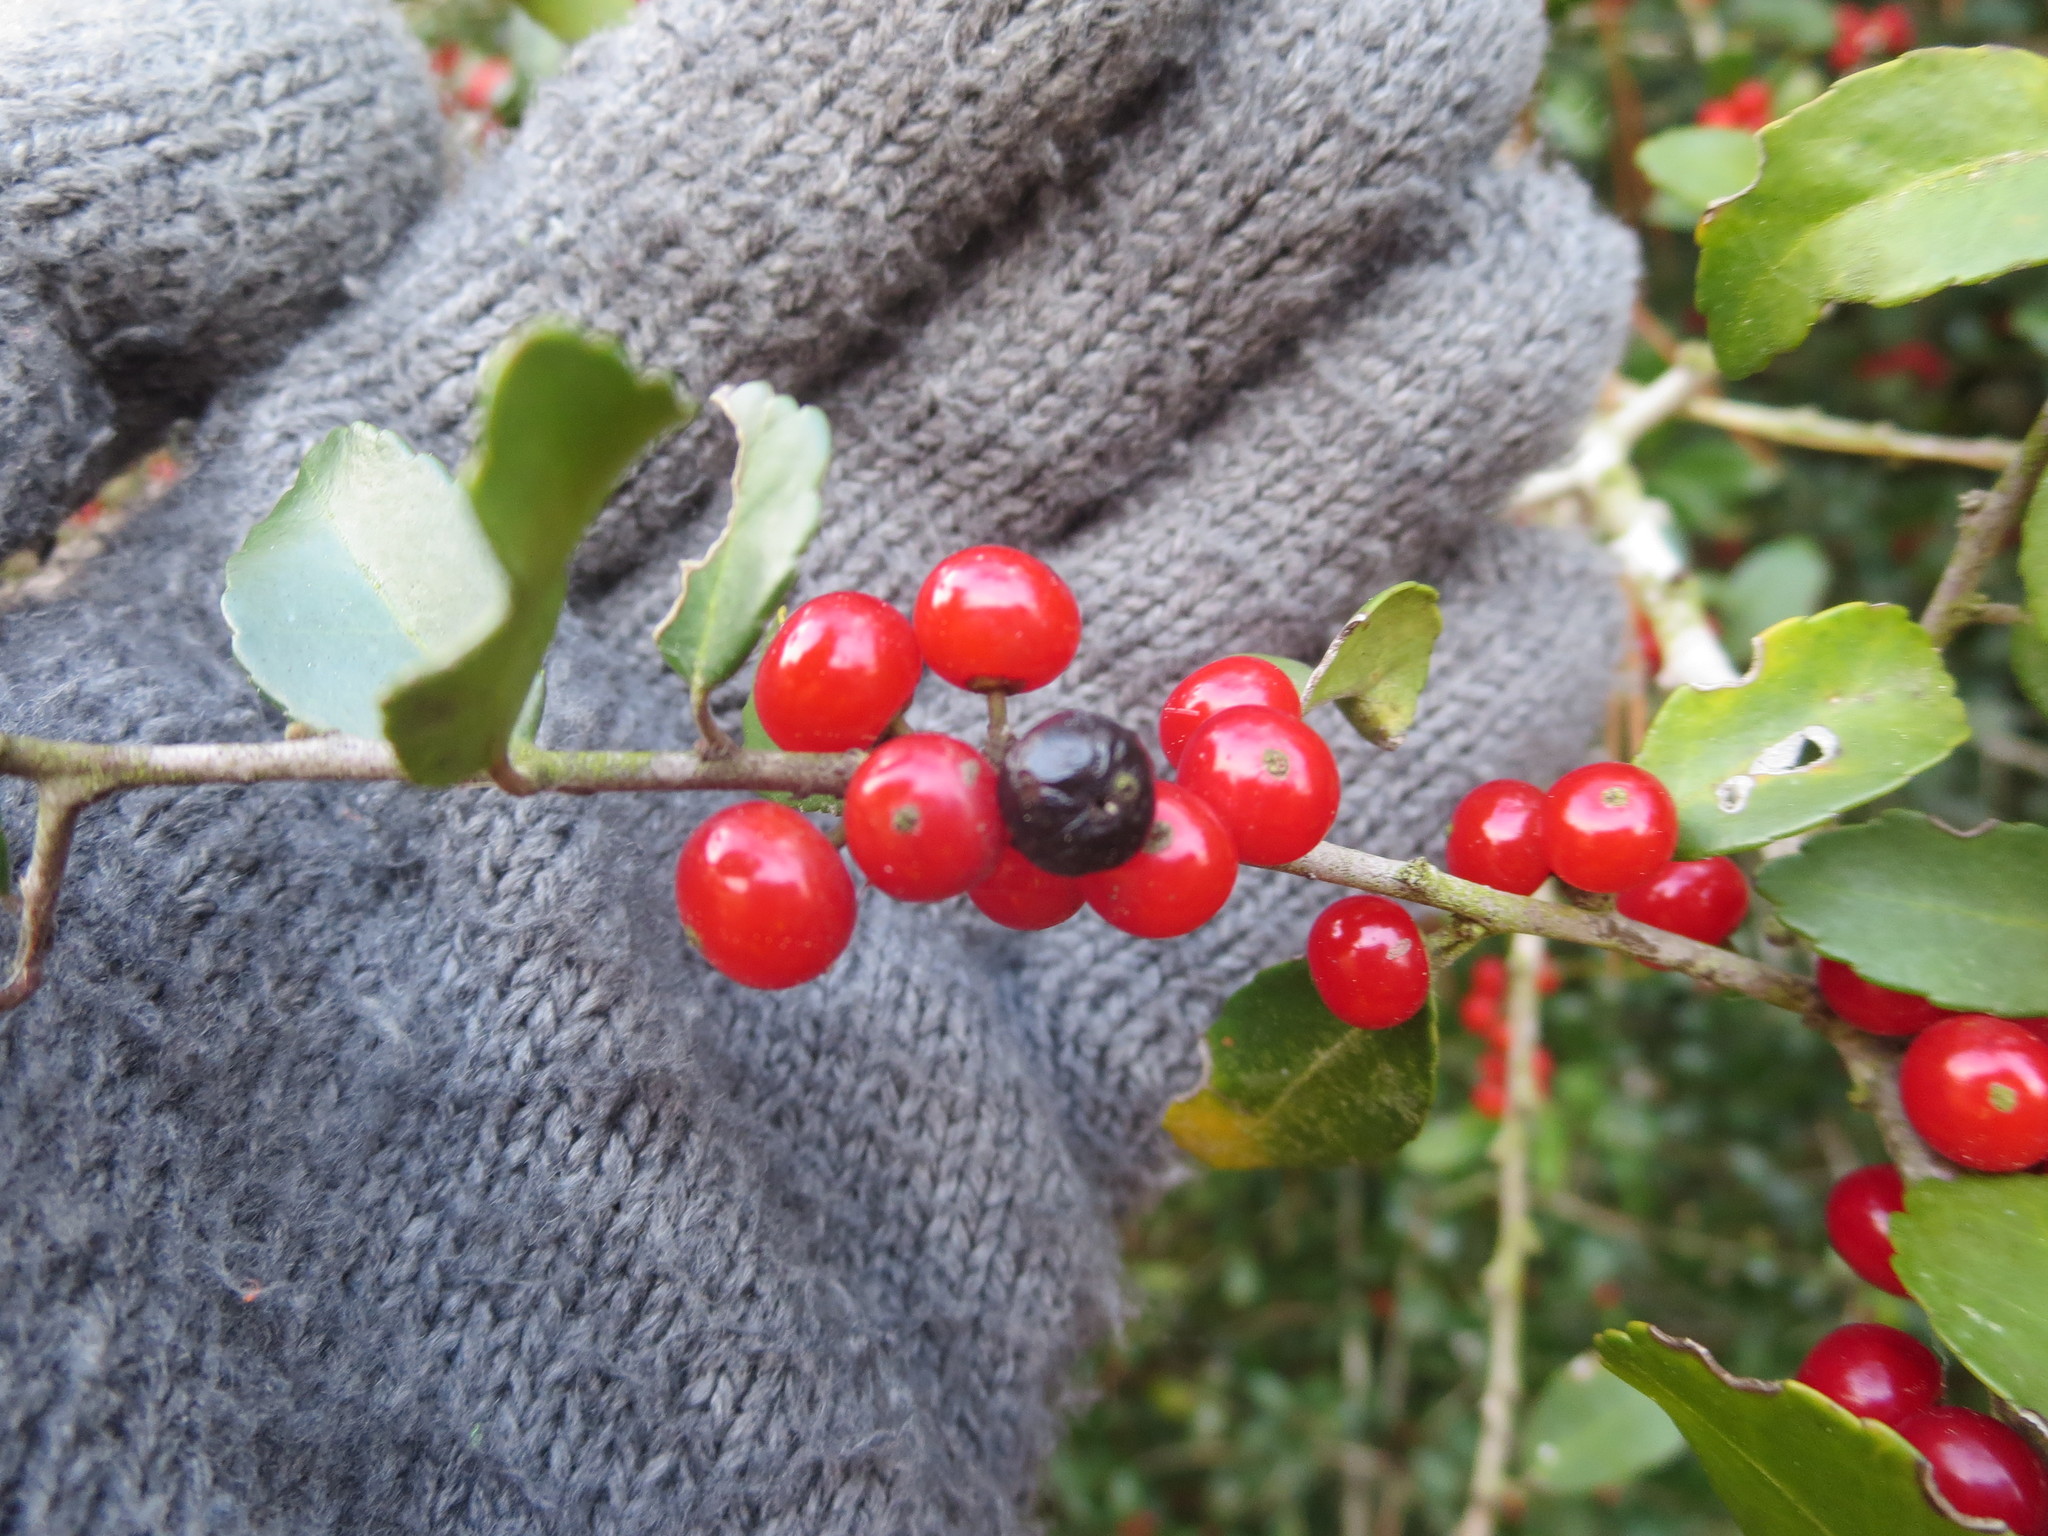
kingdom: Plantae
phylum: Tracheophyta
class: Magnoliopsida
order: Aquifoliales
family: Aquifoliaceae
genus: Ilex
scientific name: Ilex vomitoria
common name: Yaupon holly
